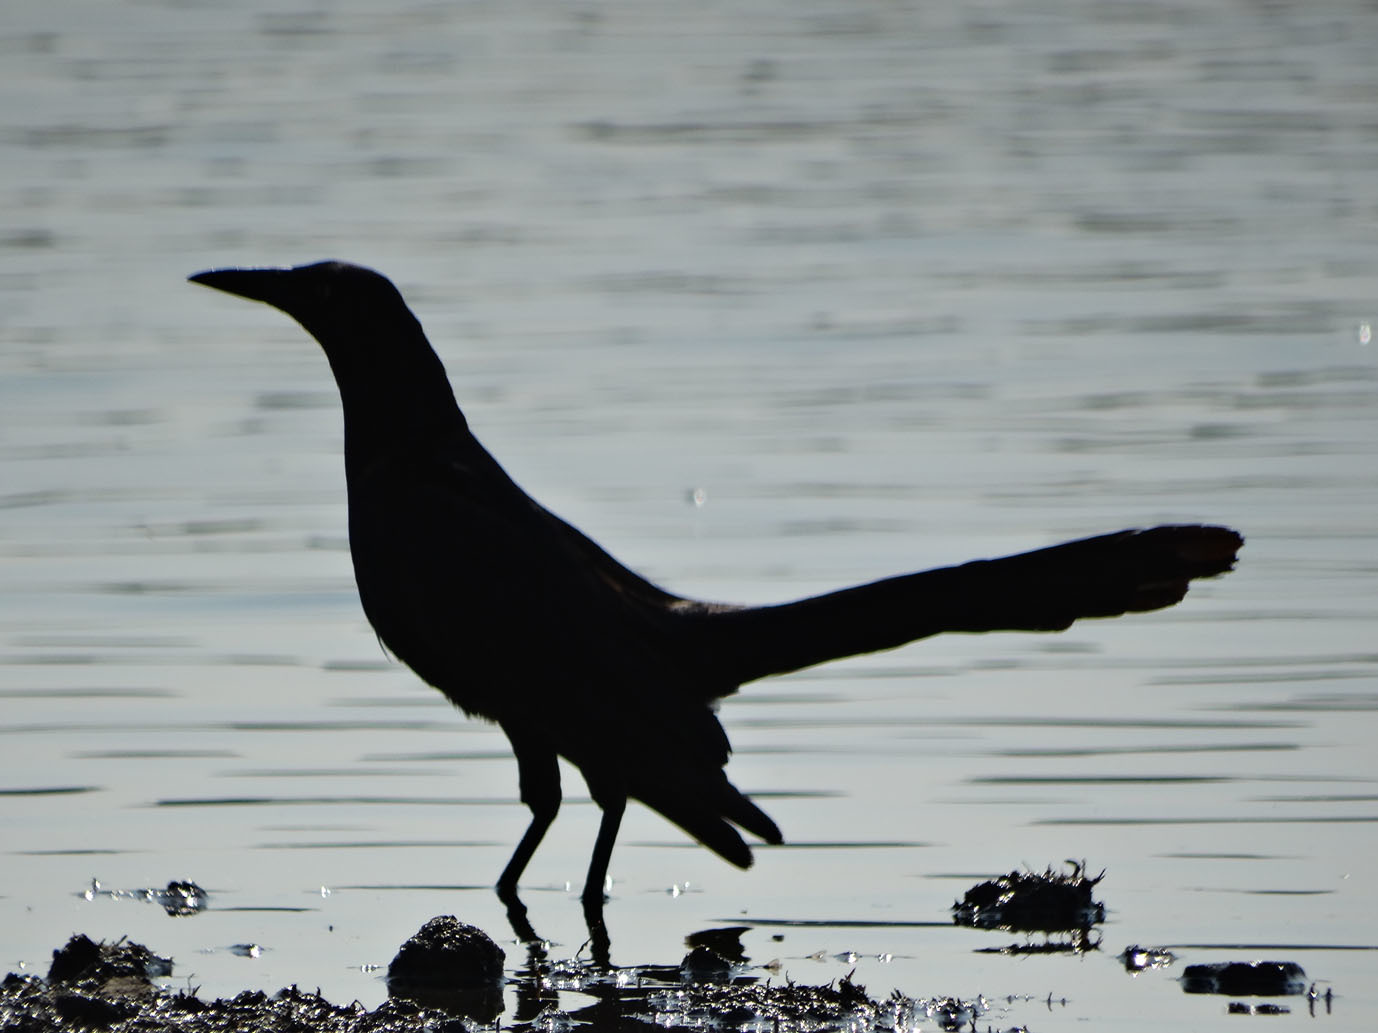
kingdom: Animalia
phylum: Chordata
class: Aves
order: Passeriformes
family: Icteridae
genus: Quiscalus
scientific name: Quiscalus mexicanus
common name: Great-tailed grackle
